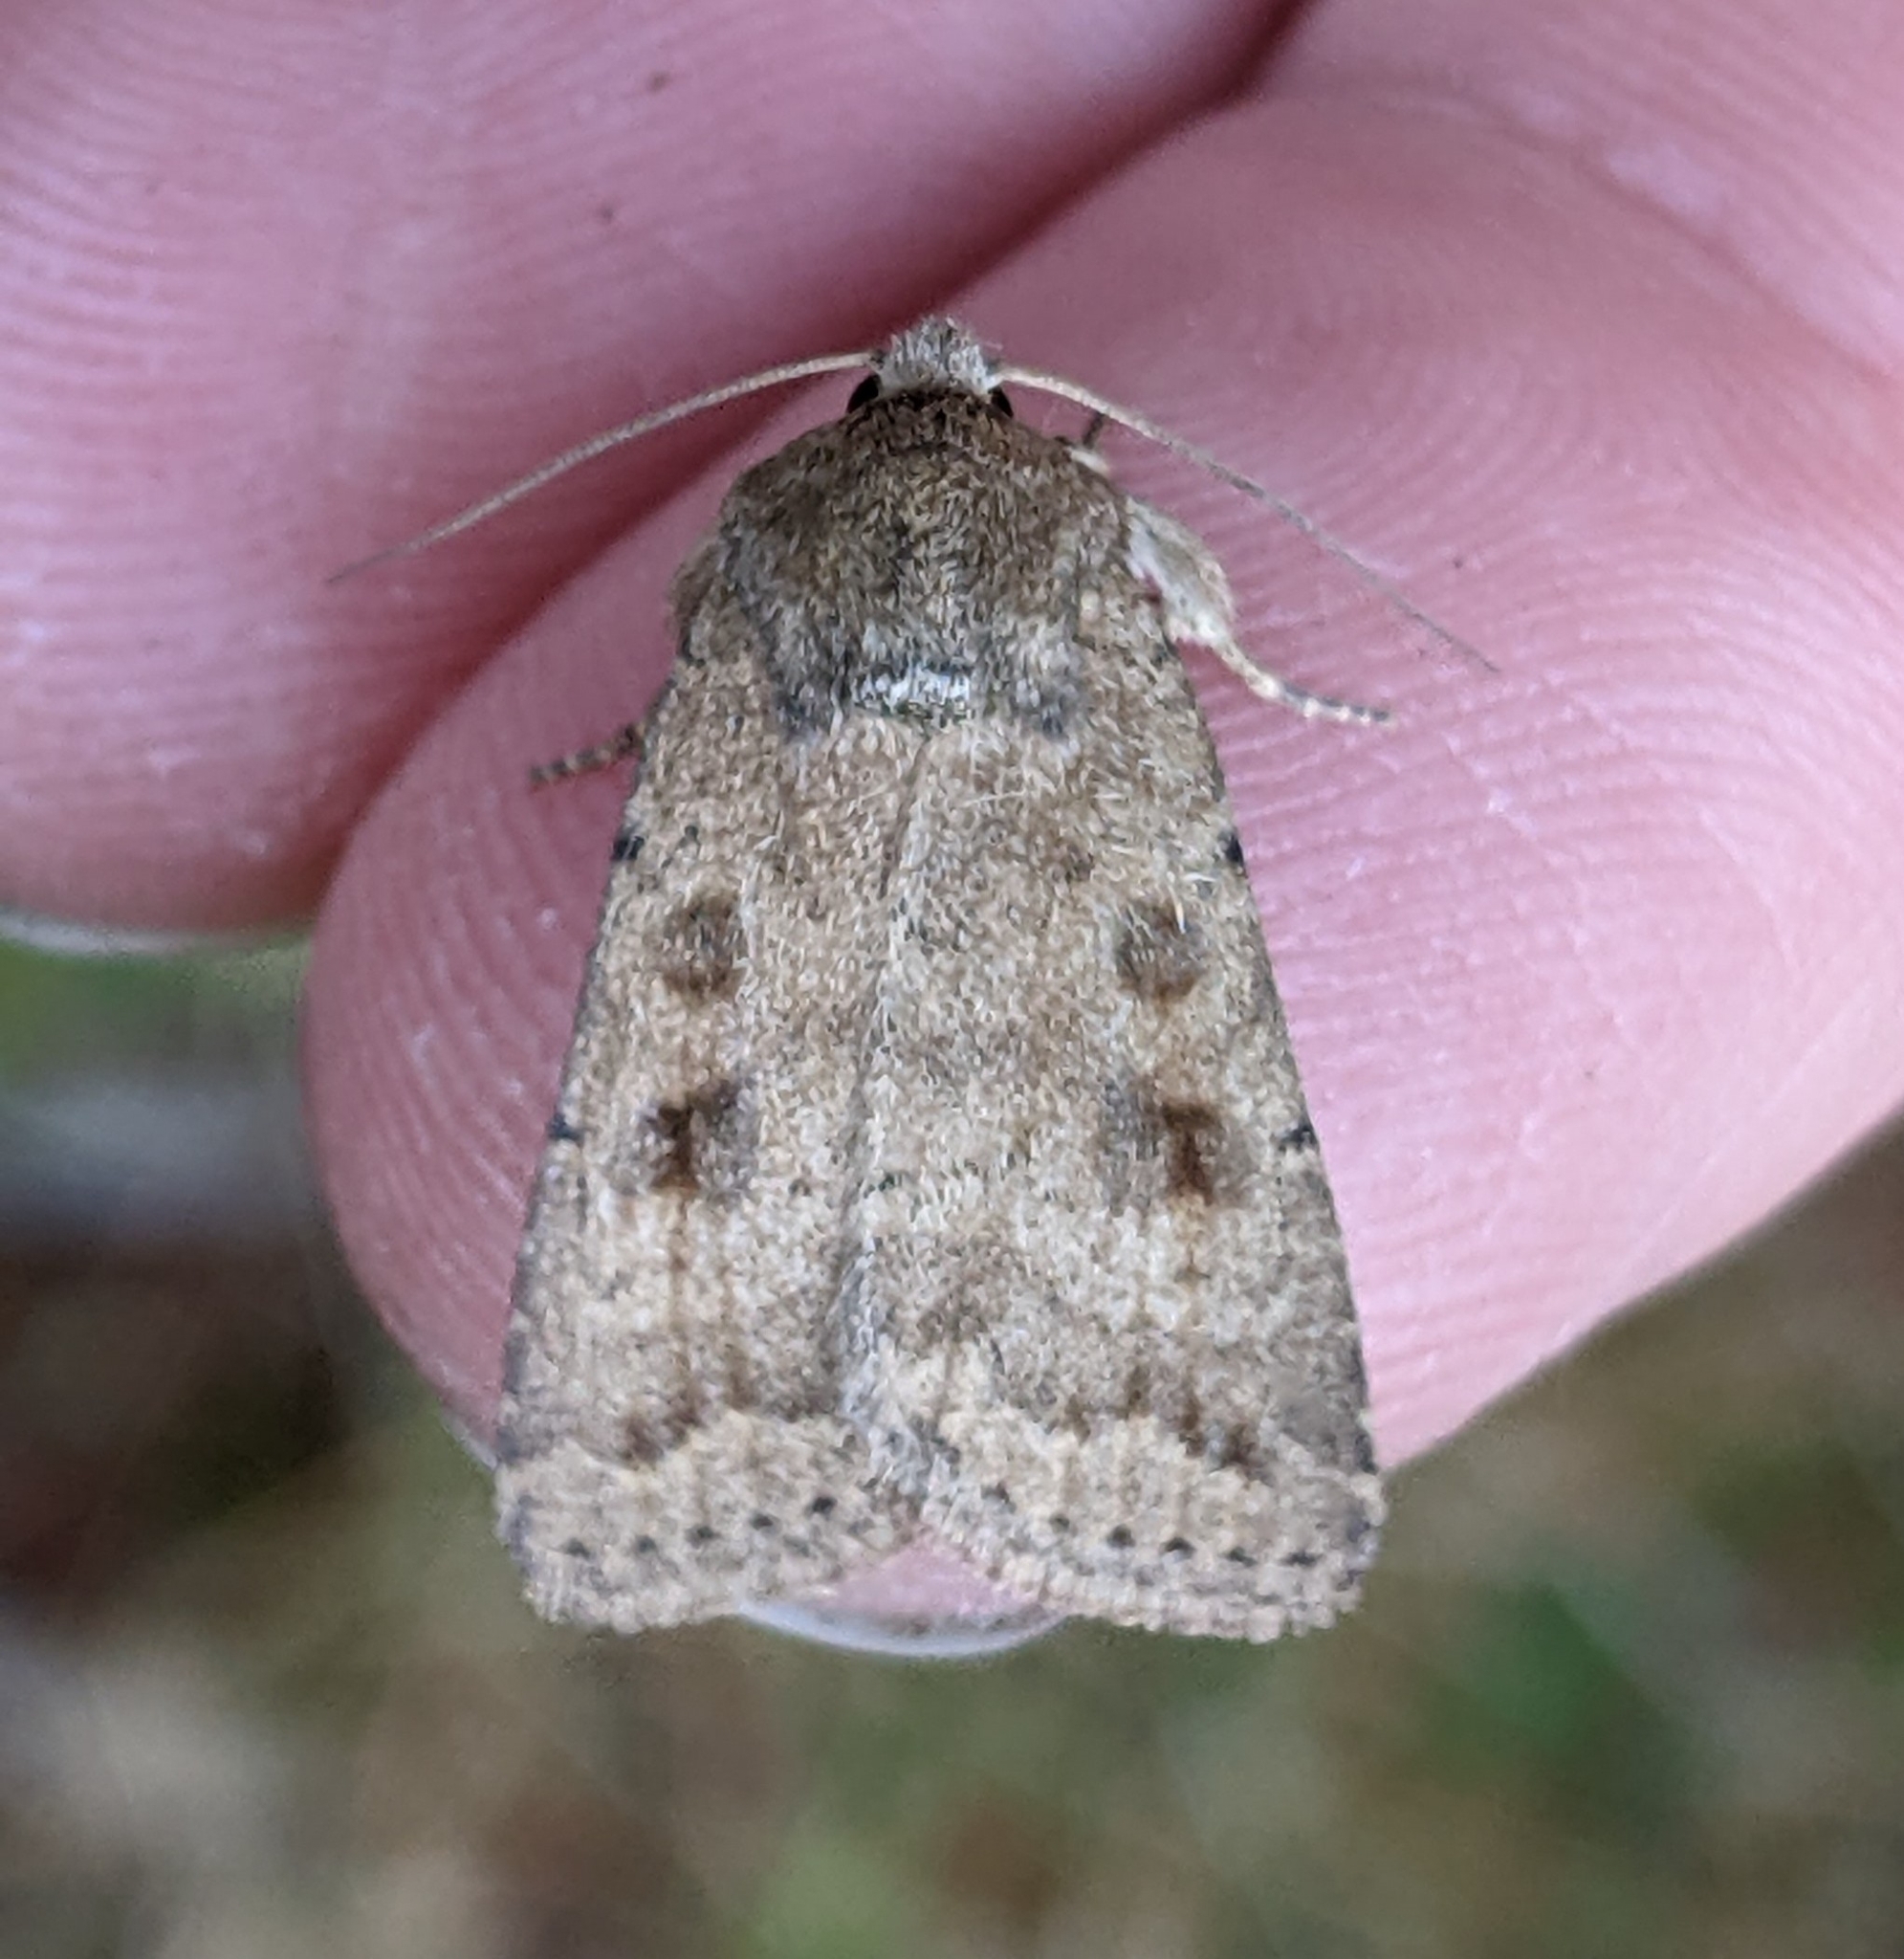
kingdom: Animalia
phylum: Arthropoda
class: Insecta
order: Lepidoptera
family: Noctuidae
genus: Caradrina
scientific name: Caradrina morpheus
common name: Mottled rustic
